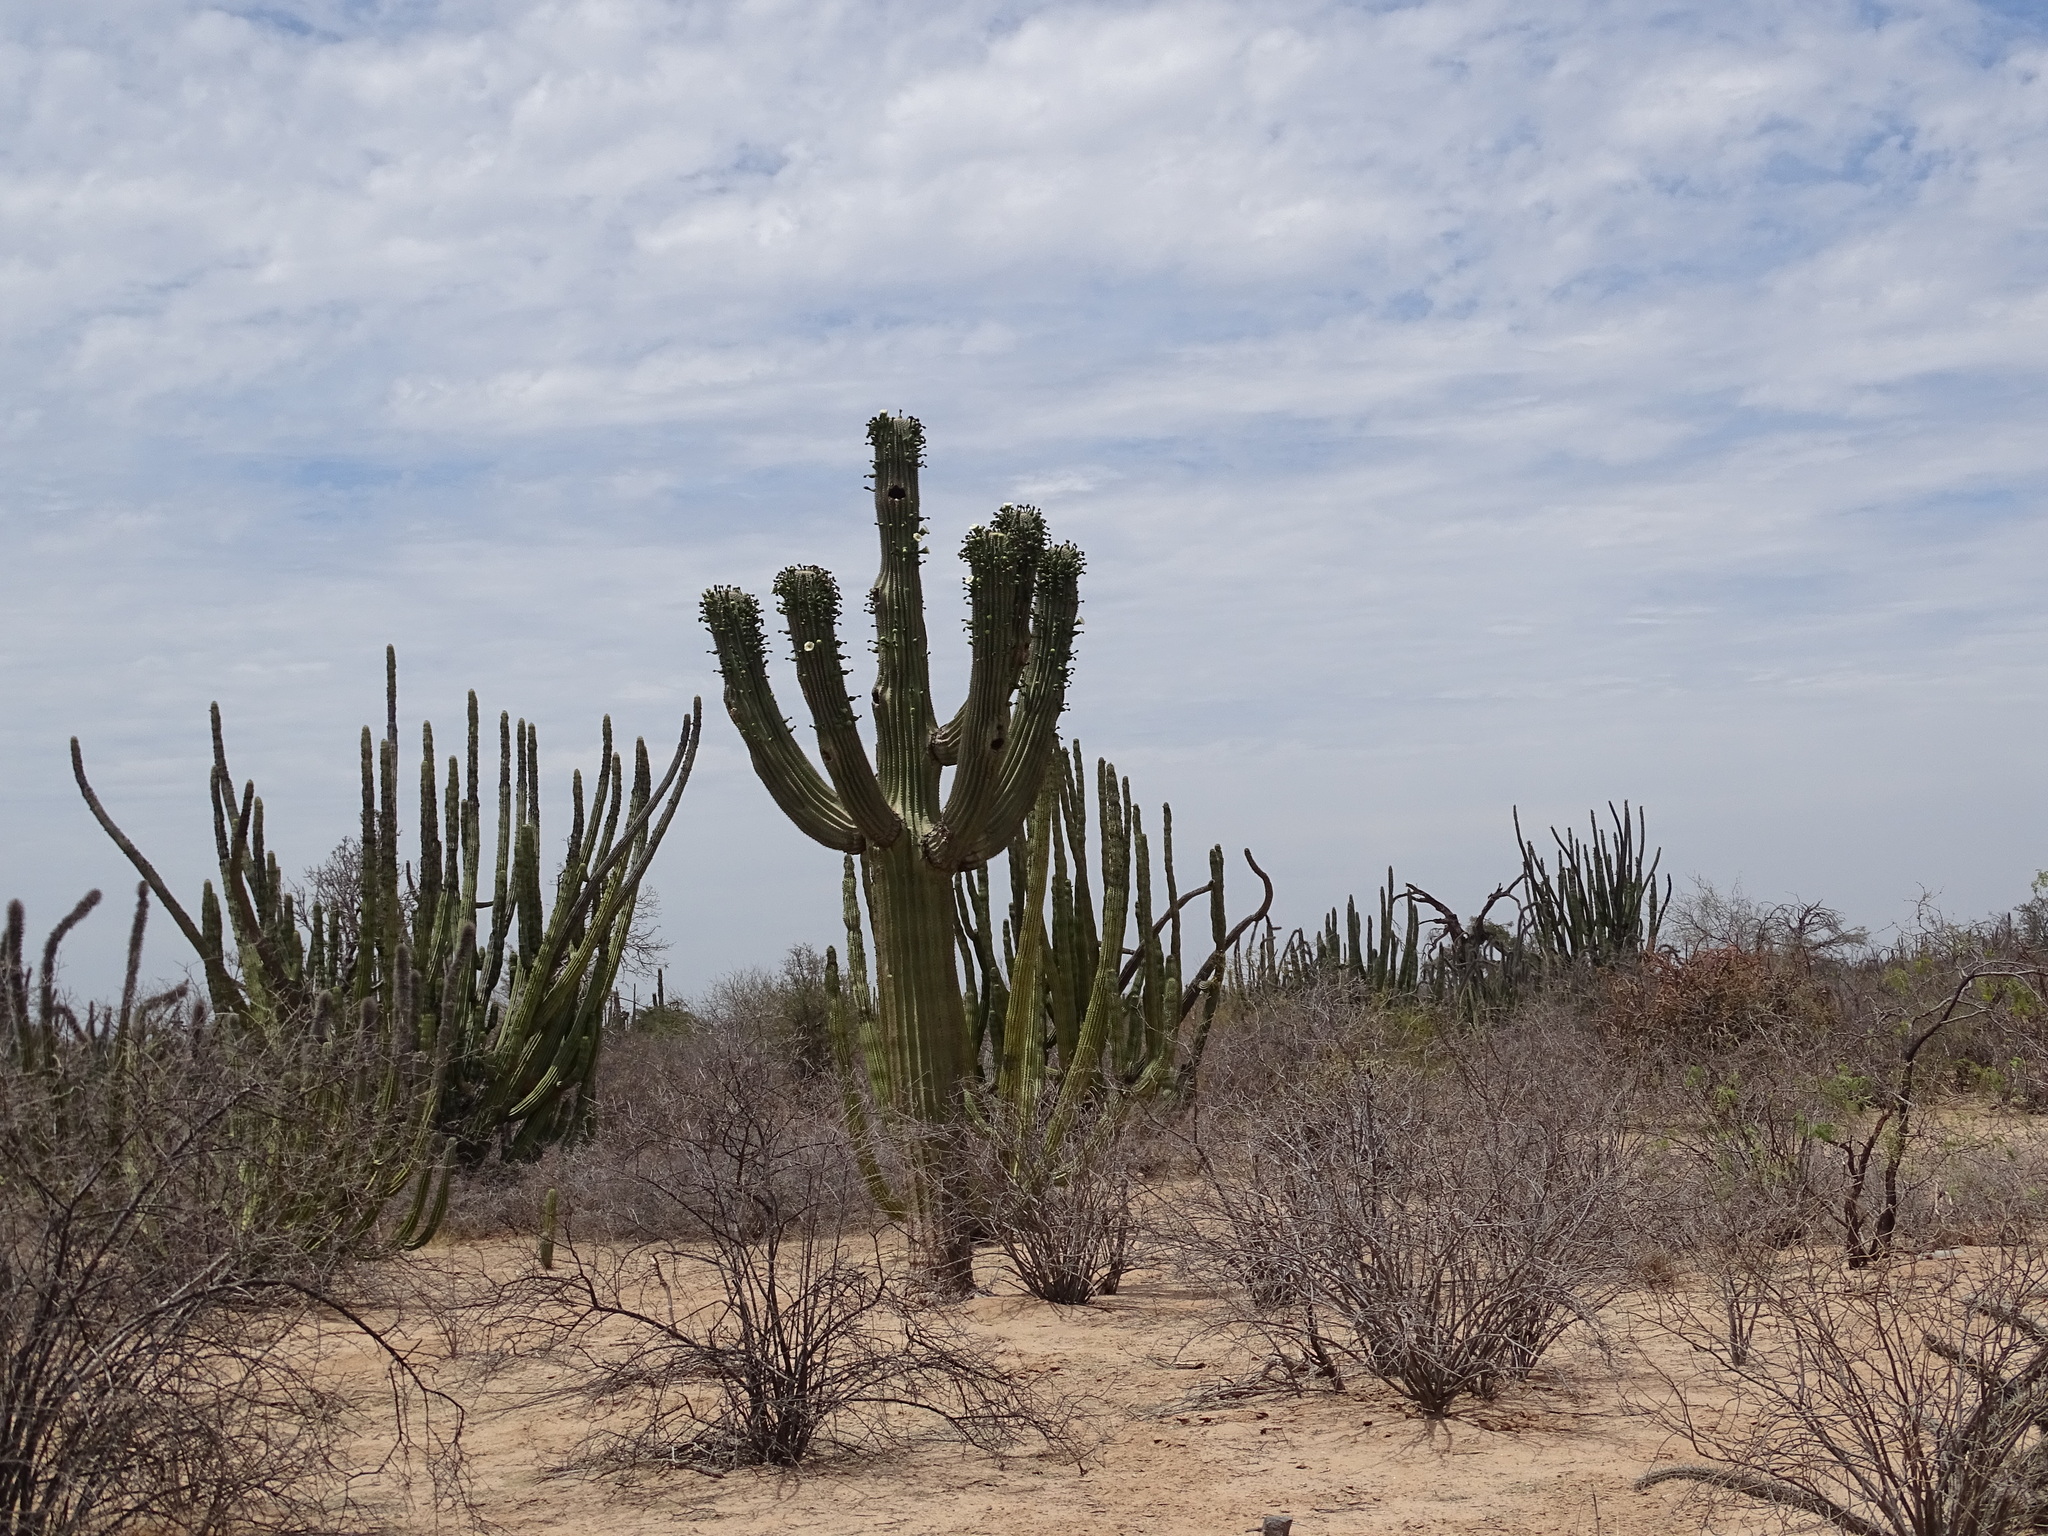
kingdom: Plantae
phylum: Tracheophyta
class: Magnoliopsida
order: Caryophyllales
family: Cactaceae
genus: Carnegiea
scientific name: Carnegiea gigantea
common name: Saguaro
